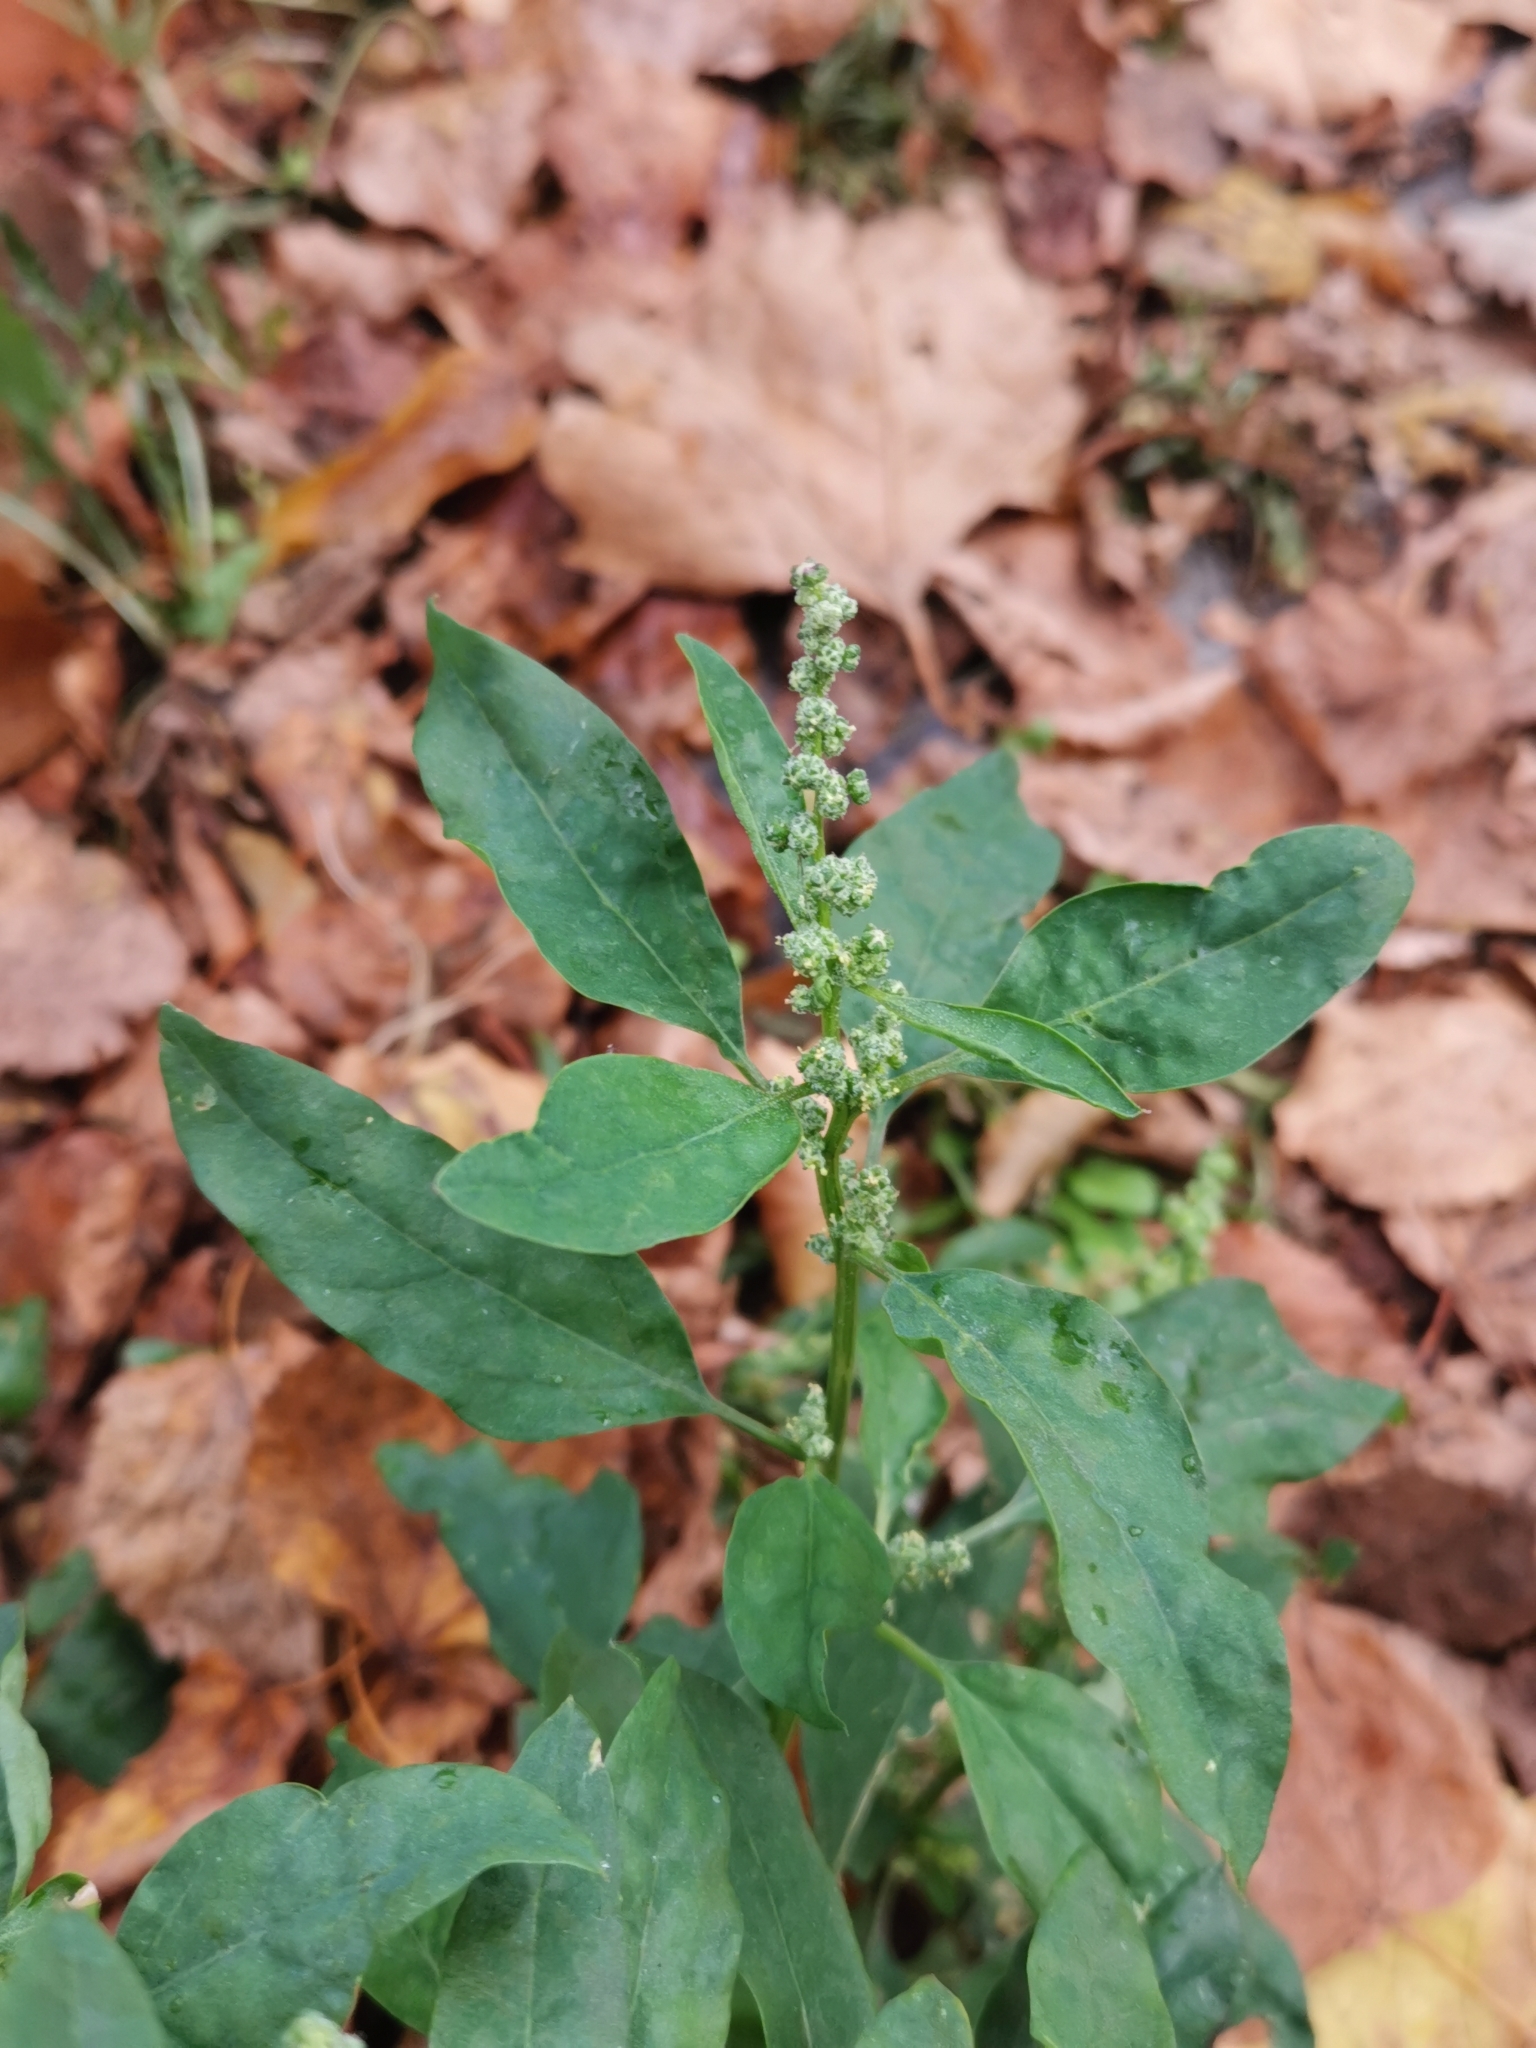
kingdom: Plantae
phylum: Tracheophyta
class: Magnoliopsida
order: Caryophyllales
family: Amaranthaceae
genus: Chenopodium
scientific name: Chenopodium album
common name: Fat-hen
